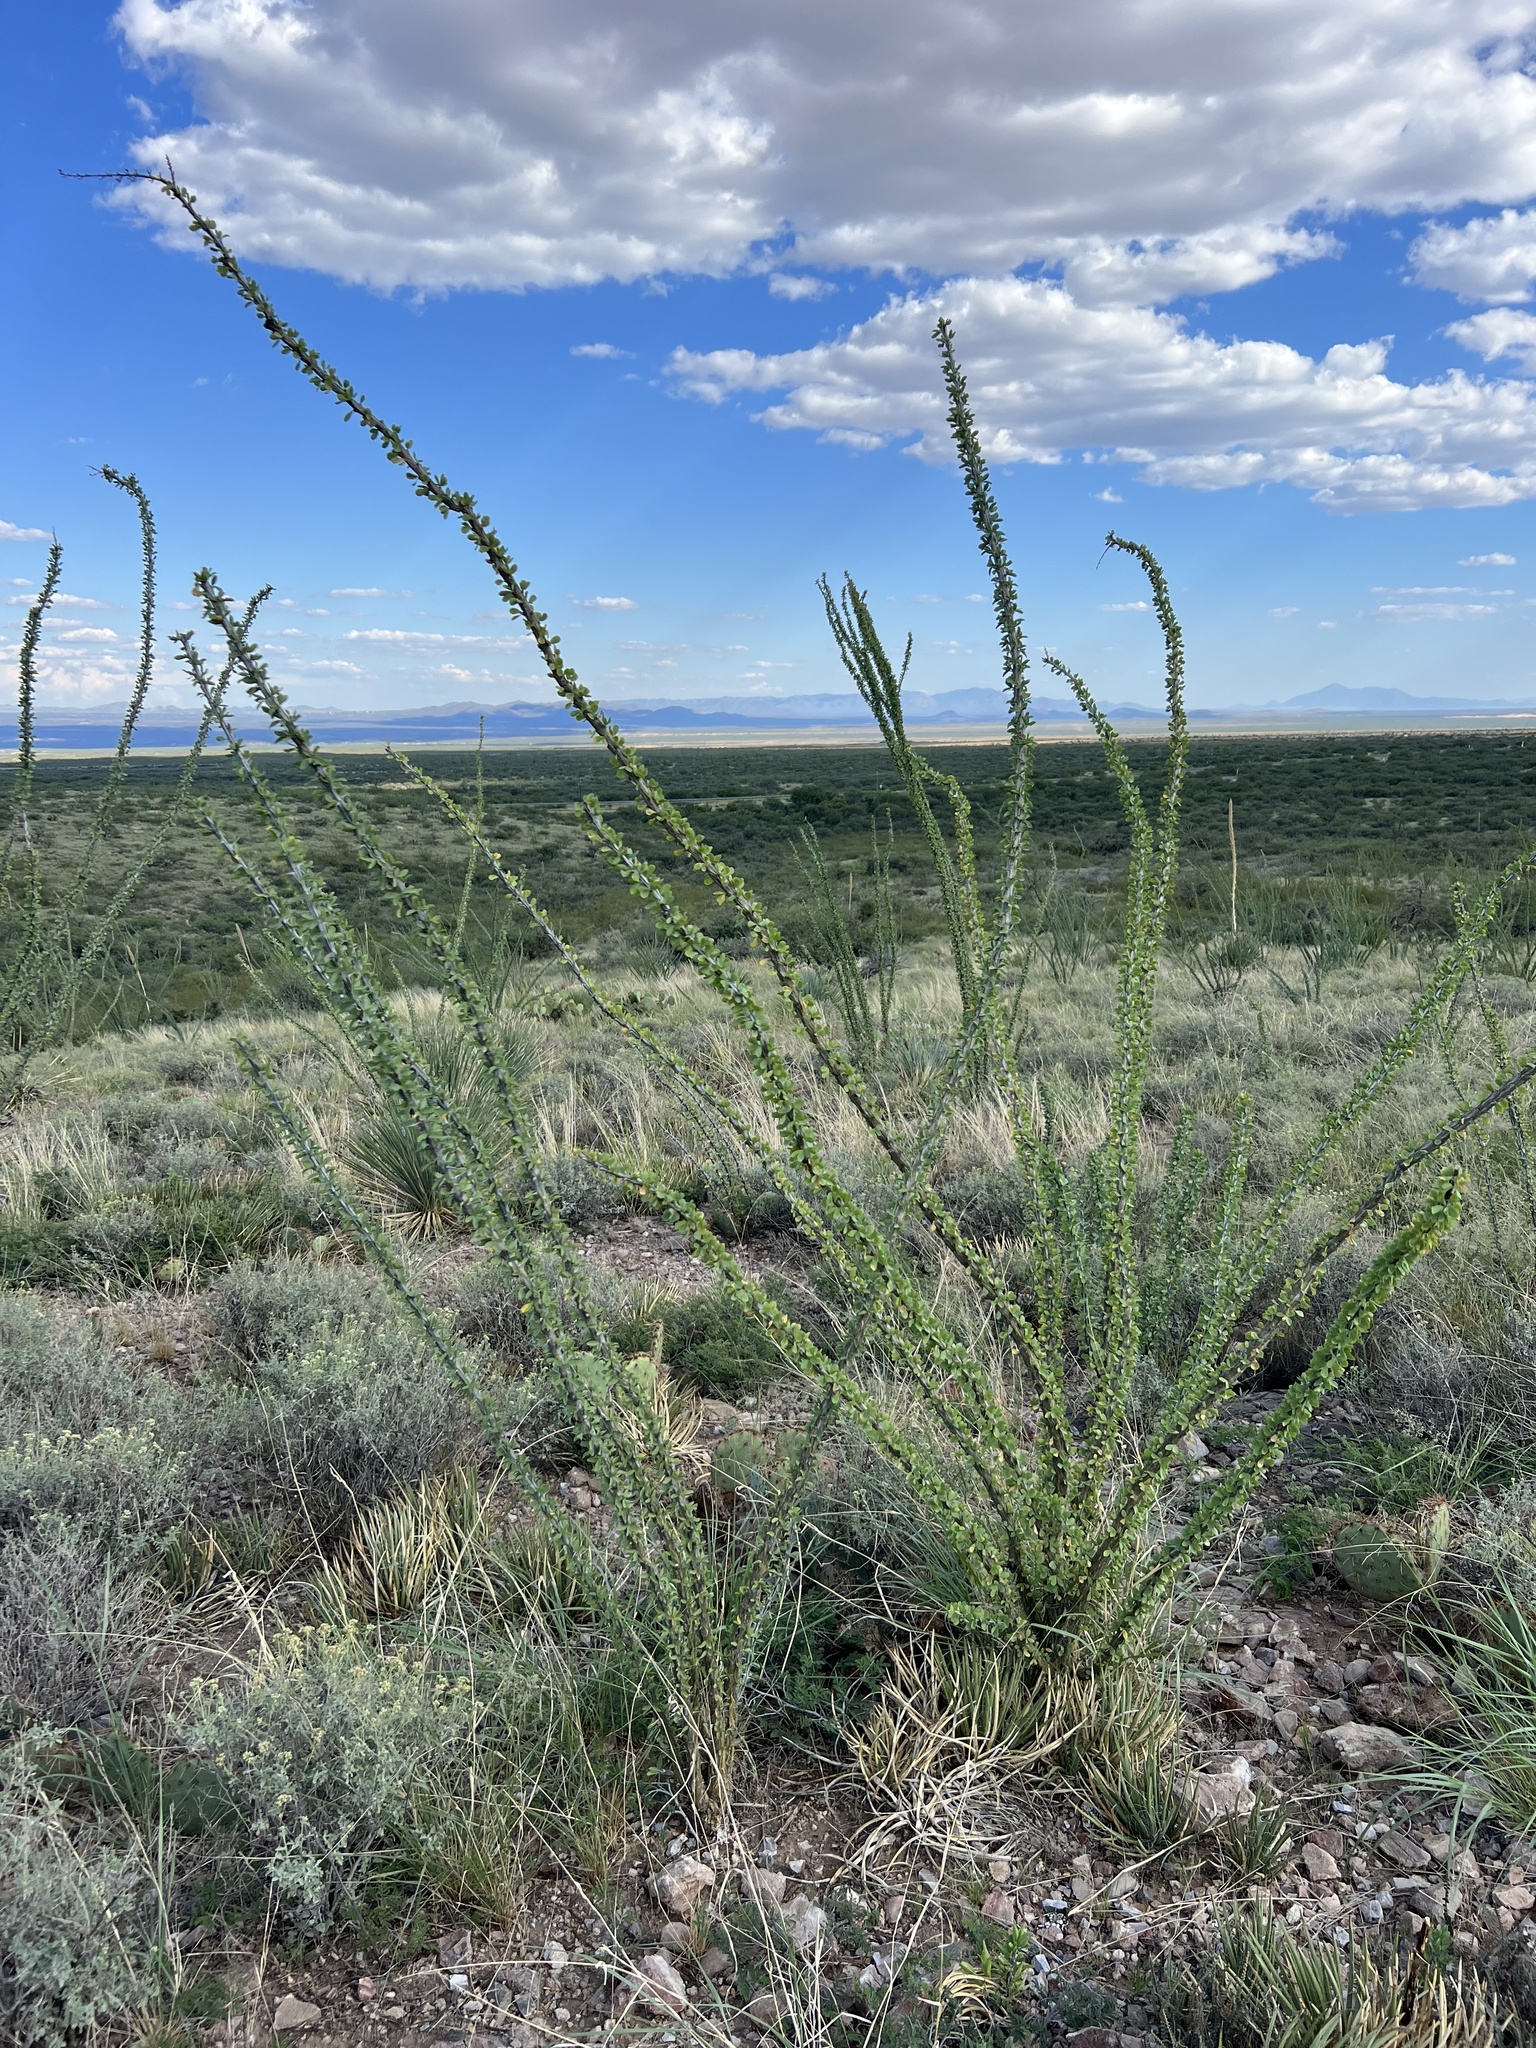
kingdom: Plantae
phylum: Tracheophyta
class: Magnoliopsida
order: Ericales
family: Fouquieriaceae
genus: Fouquieria
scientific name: Fouquieria splendens
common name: Vine-cactus
